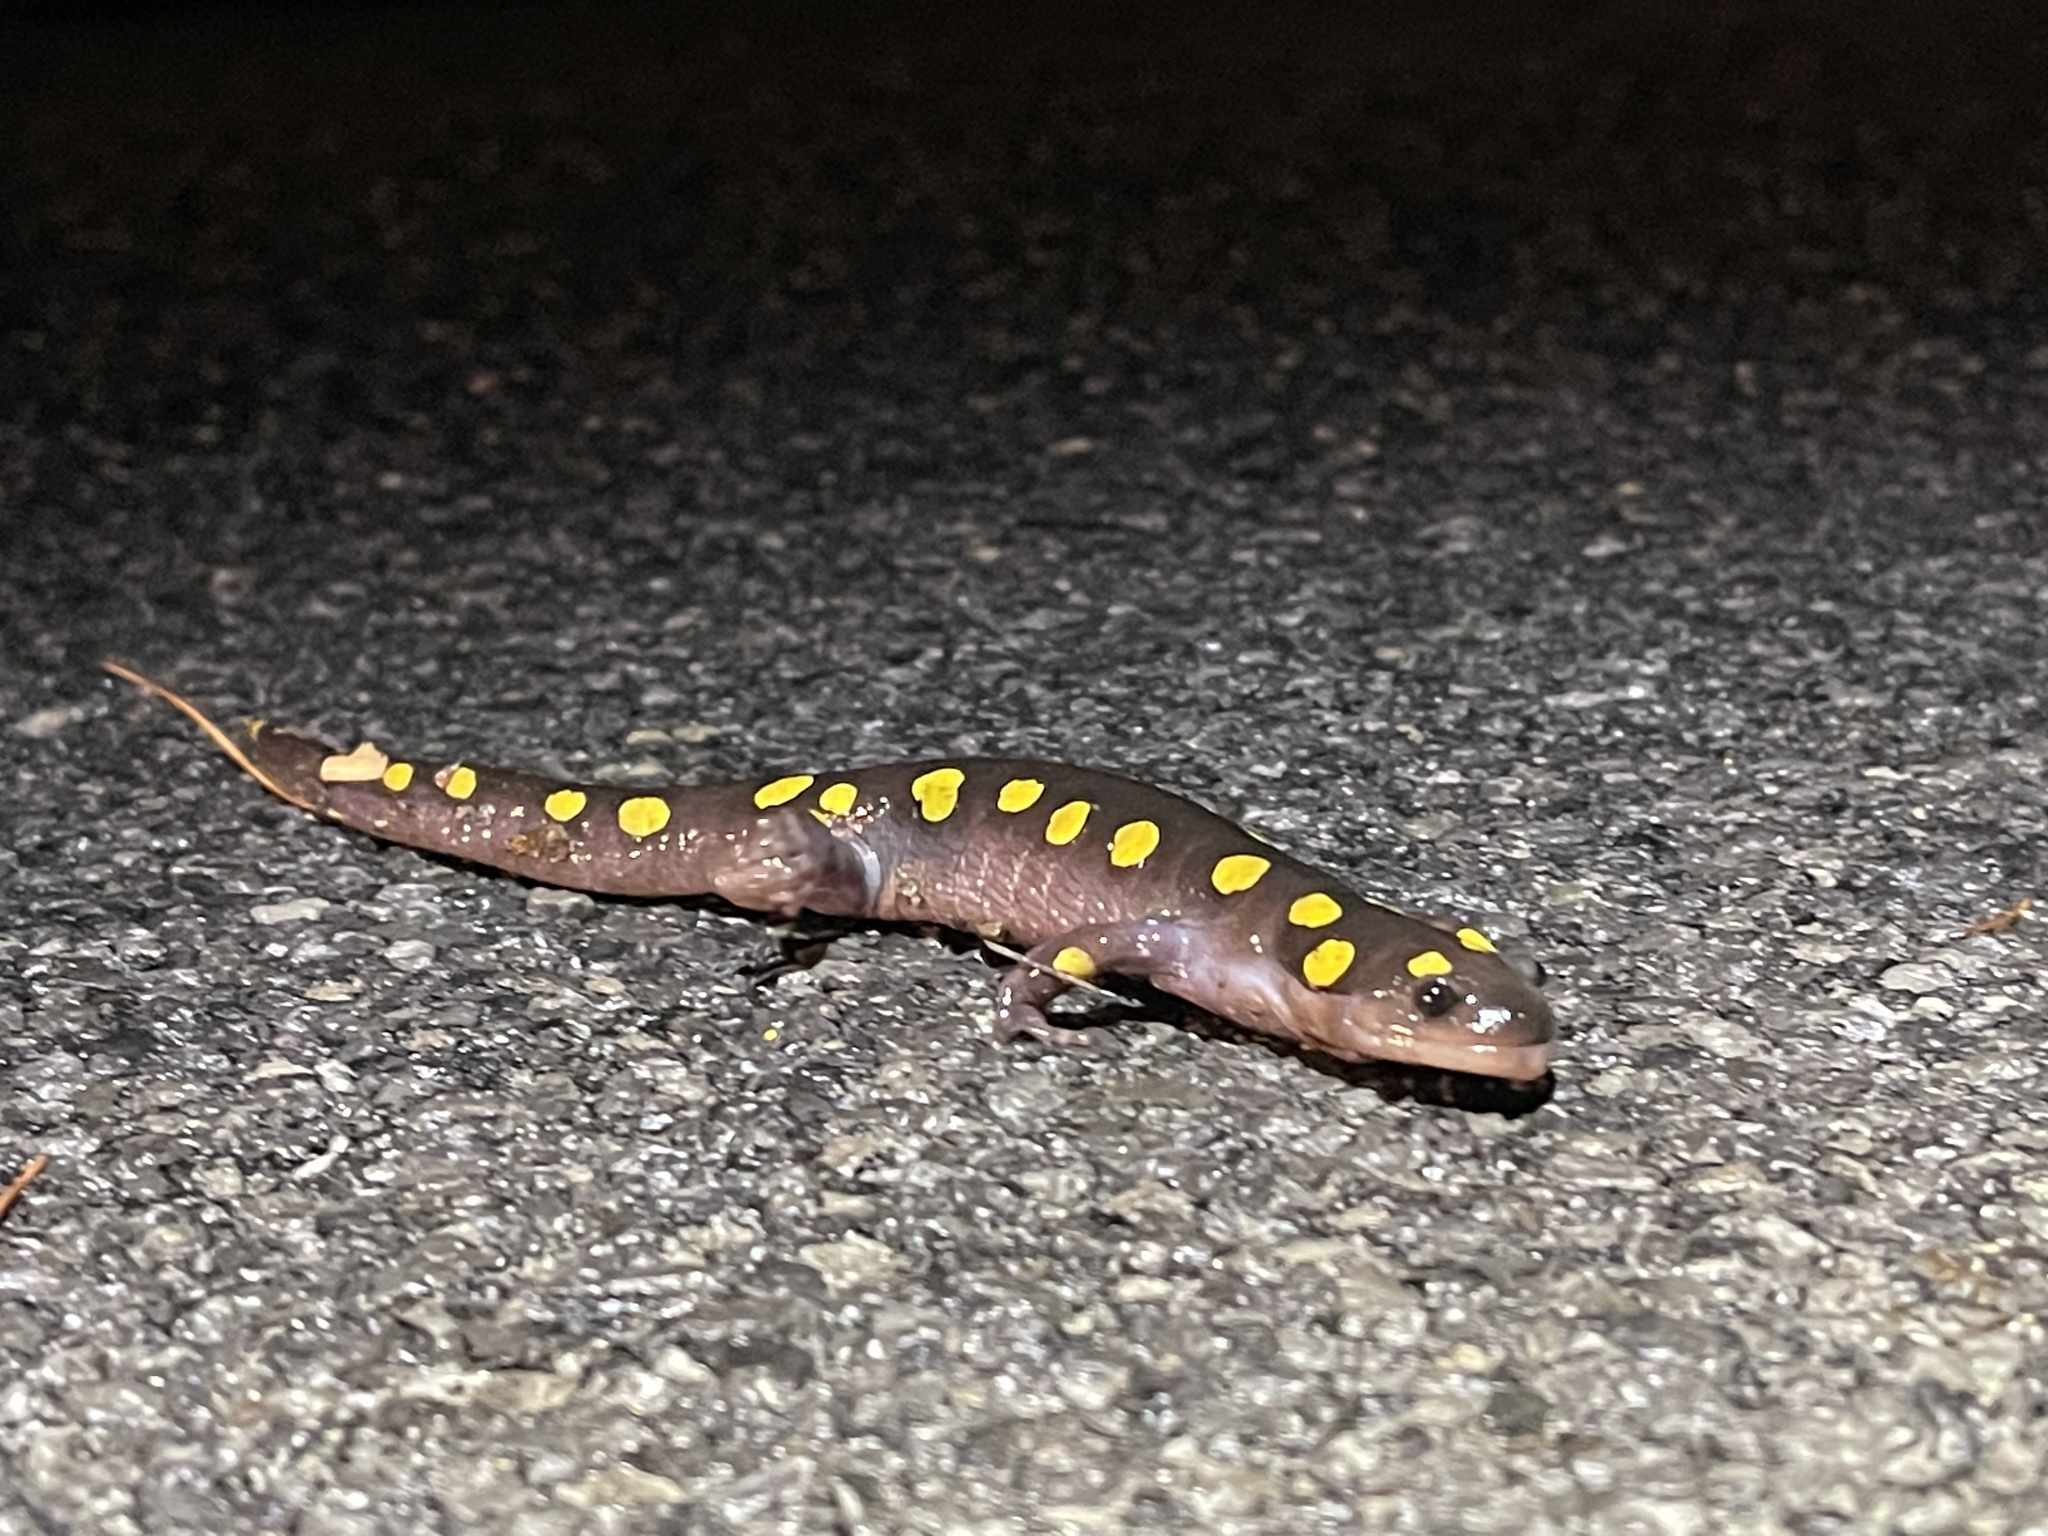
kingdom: Animalia
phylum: Chordata
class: Amphibia
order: Caudata
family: Ambystomatidae
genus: Ambystoma
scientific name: Ambystoma maculatum
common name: Spotted salamander
